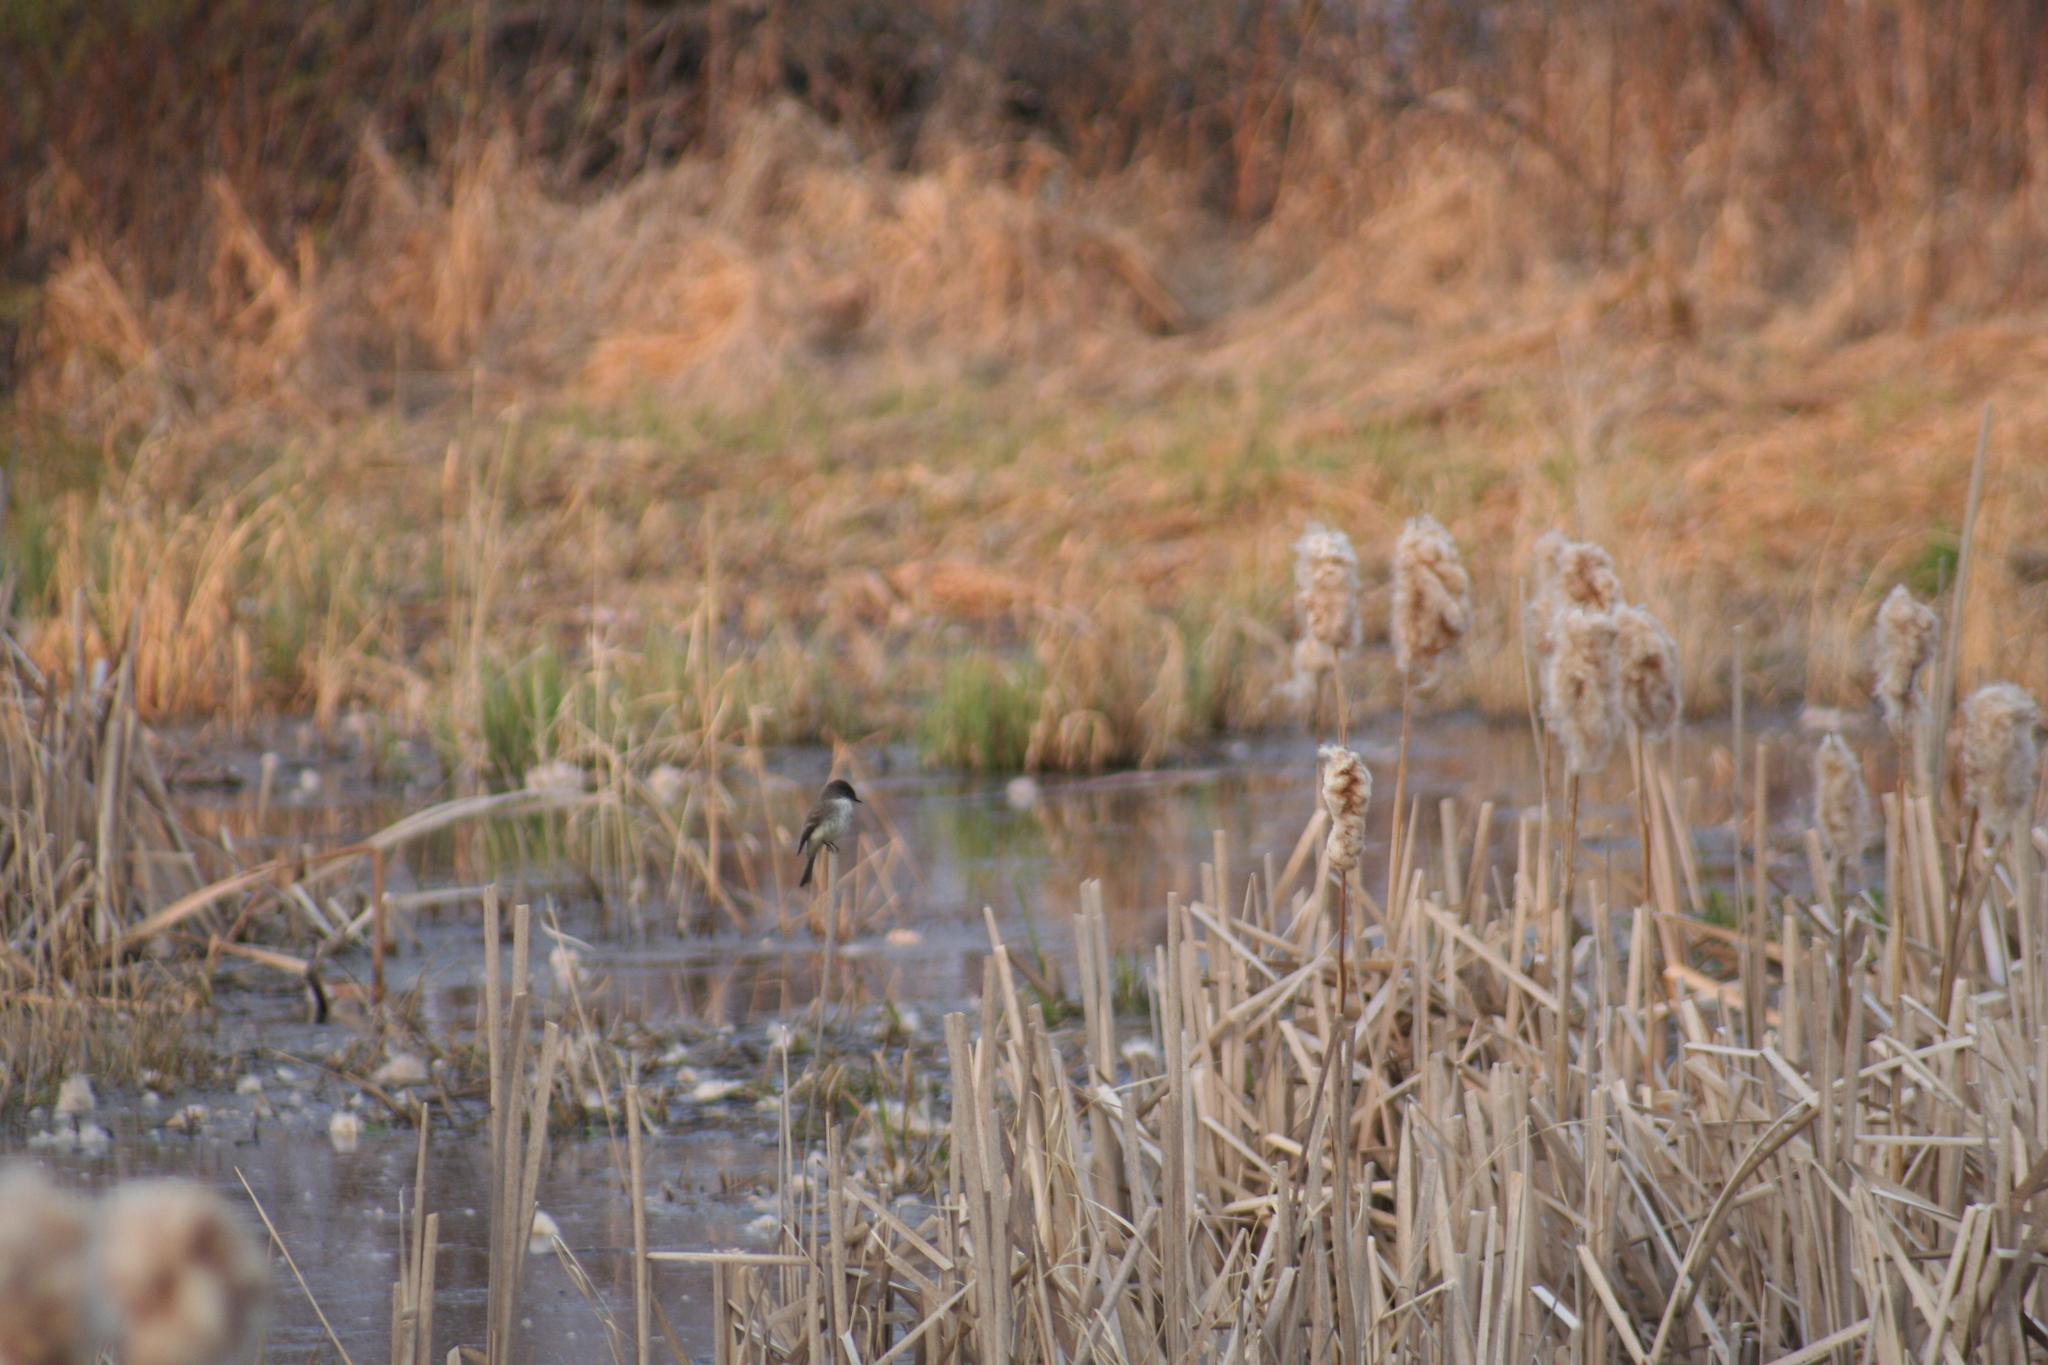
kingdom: Animalia
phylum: Chordata
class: Aves
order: Passeriformes
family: Tyrannidae
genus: Sayornis
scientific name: Sayornis phoebe
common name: Eastern phoebe
